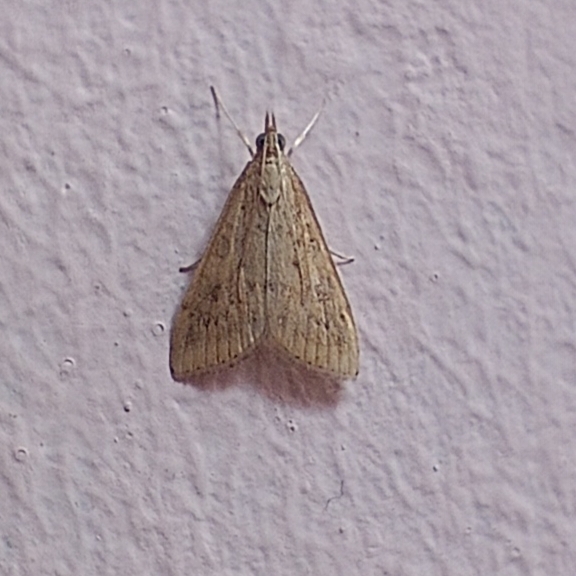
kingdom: Animalia
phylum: Arthropoda
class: Insecta
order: Lepidoptera
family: Crambidae
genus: Udea
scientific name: Udea ferrugalis
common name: Rusty dot
